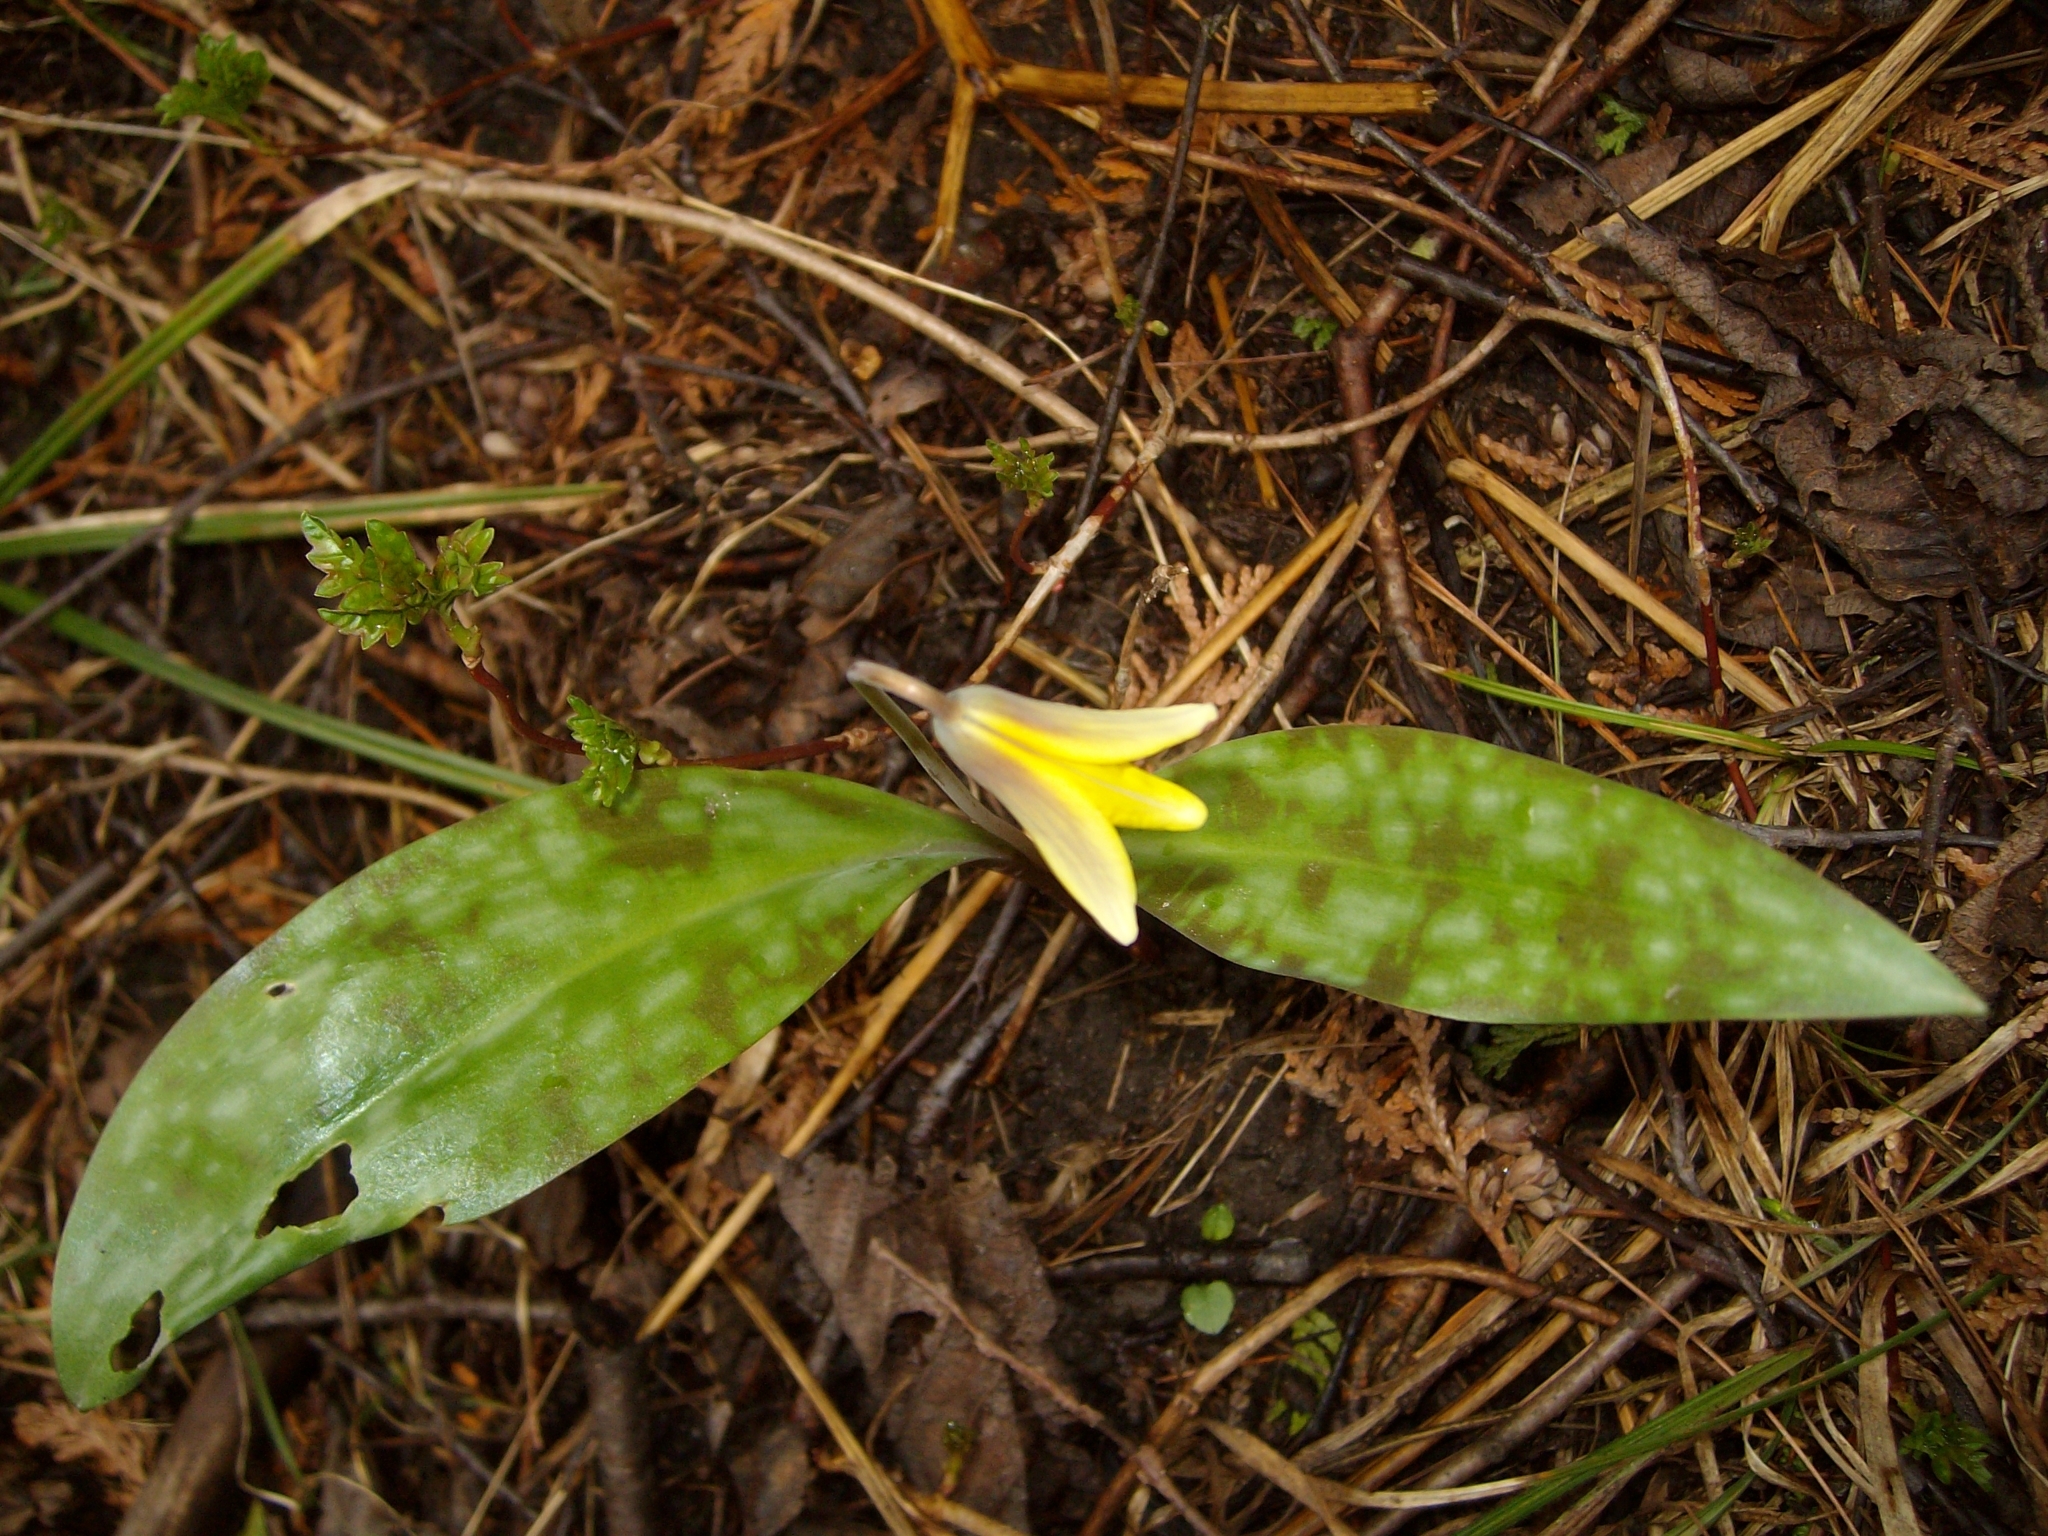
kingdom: Plantae
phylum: Tracheophyta
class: Liliopsida
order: Liliales
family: Liliaceae
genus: Erythronium
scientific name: Erythronium americanum
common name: Yellow adder's-tongue
